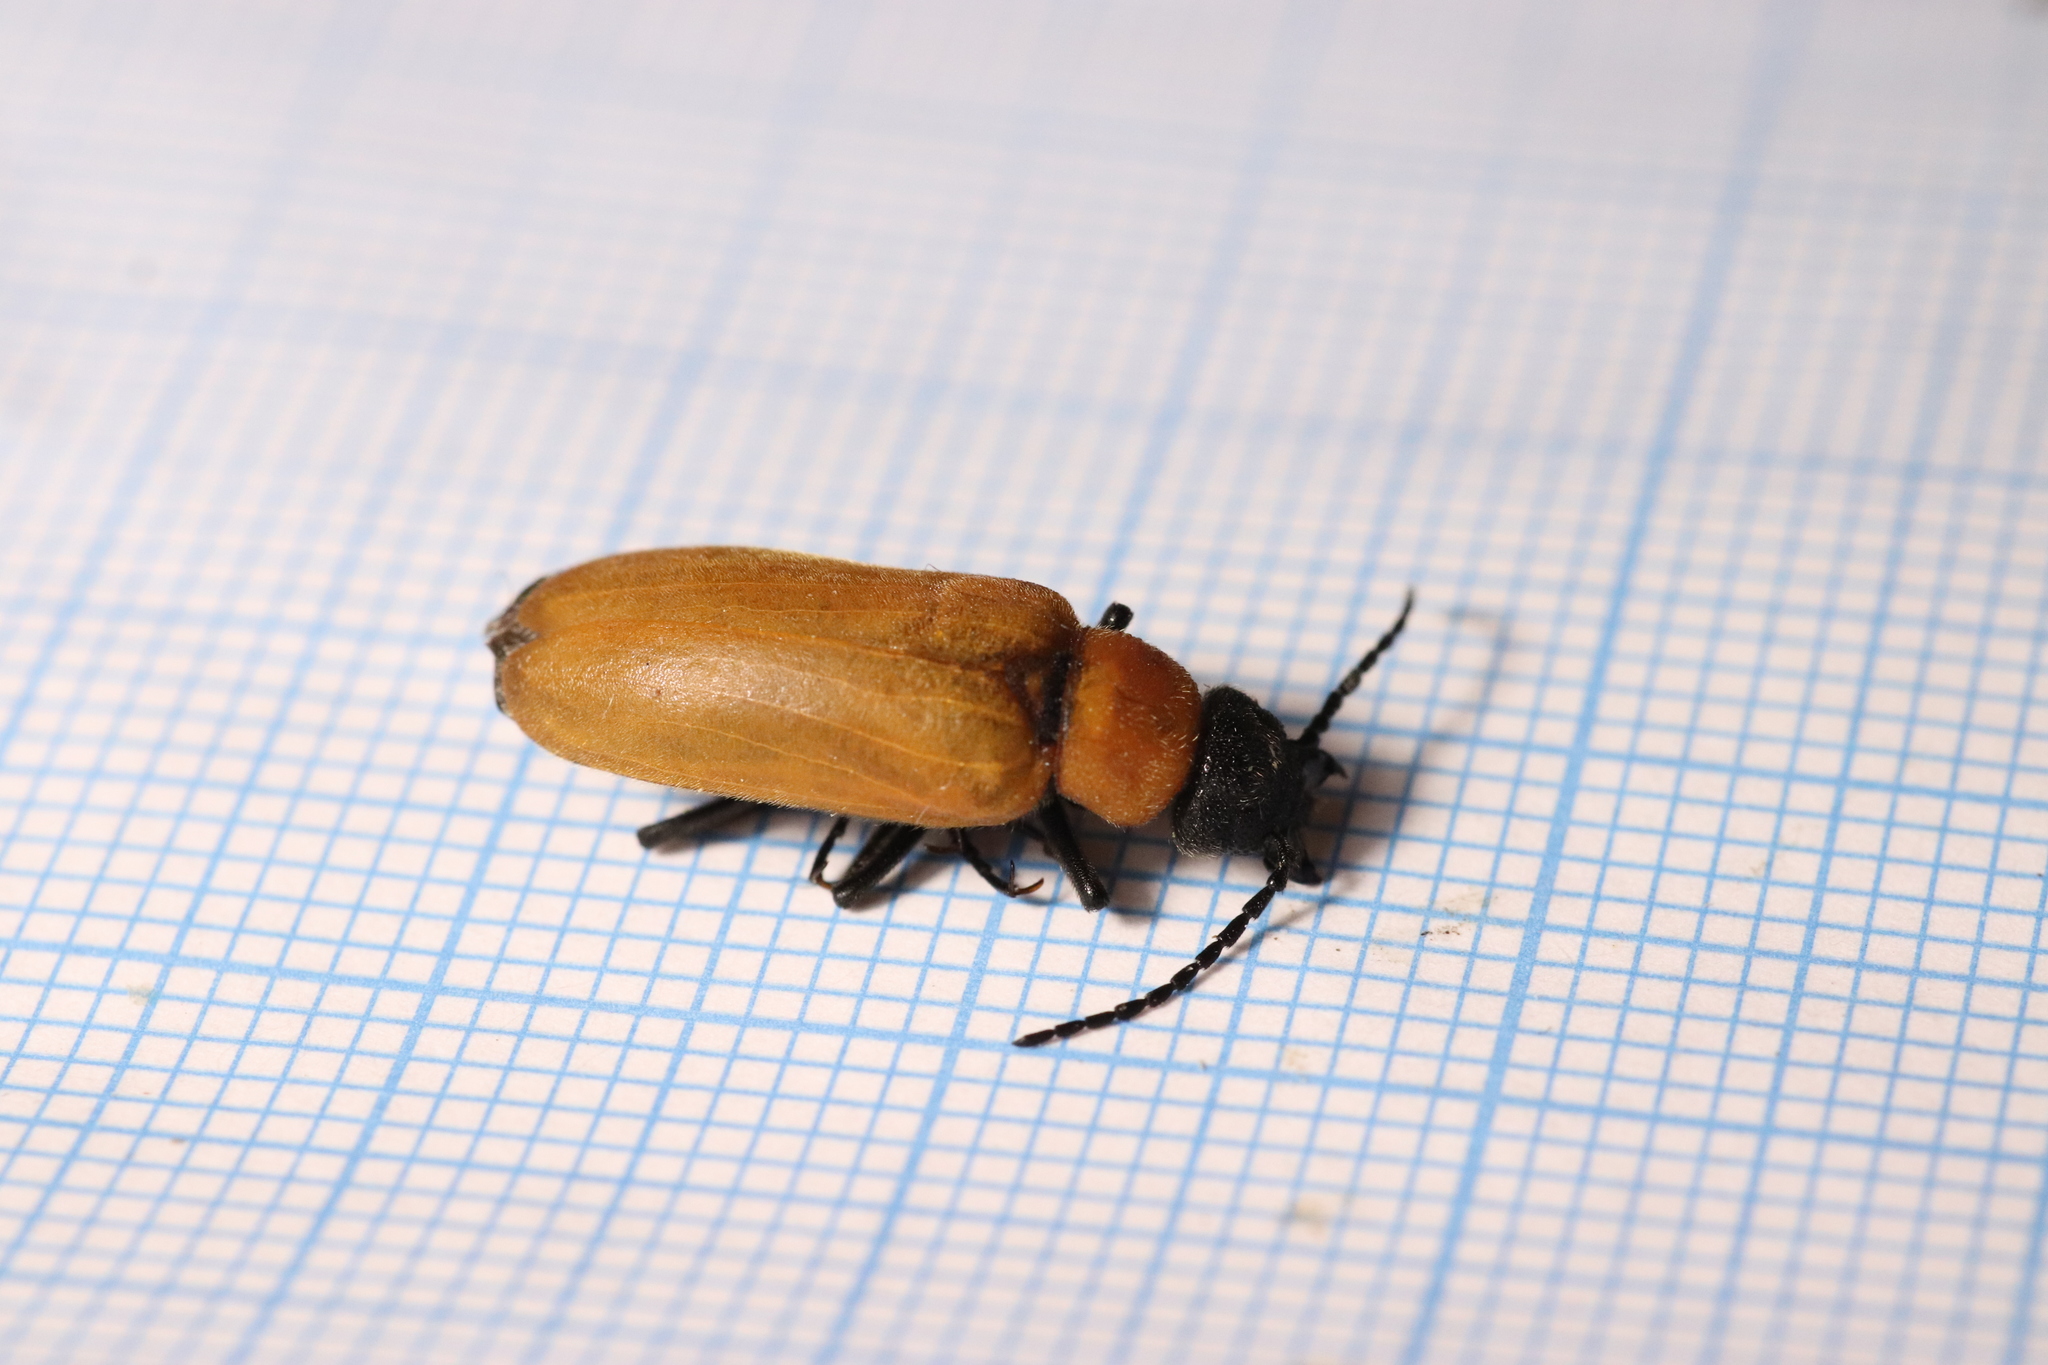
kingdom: Animalia
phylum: Arthropoda
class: Insecta
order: Coleoptera
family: Chrysomelidae
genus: Exosoma
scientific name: Exosoma lusitanicum
